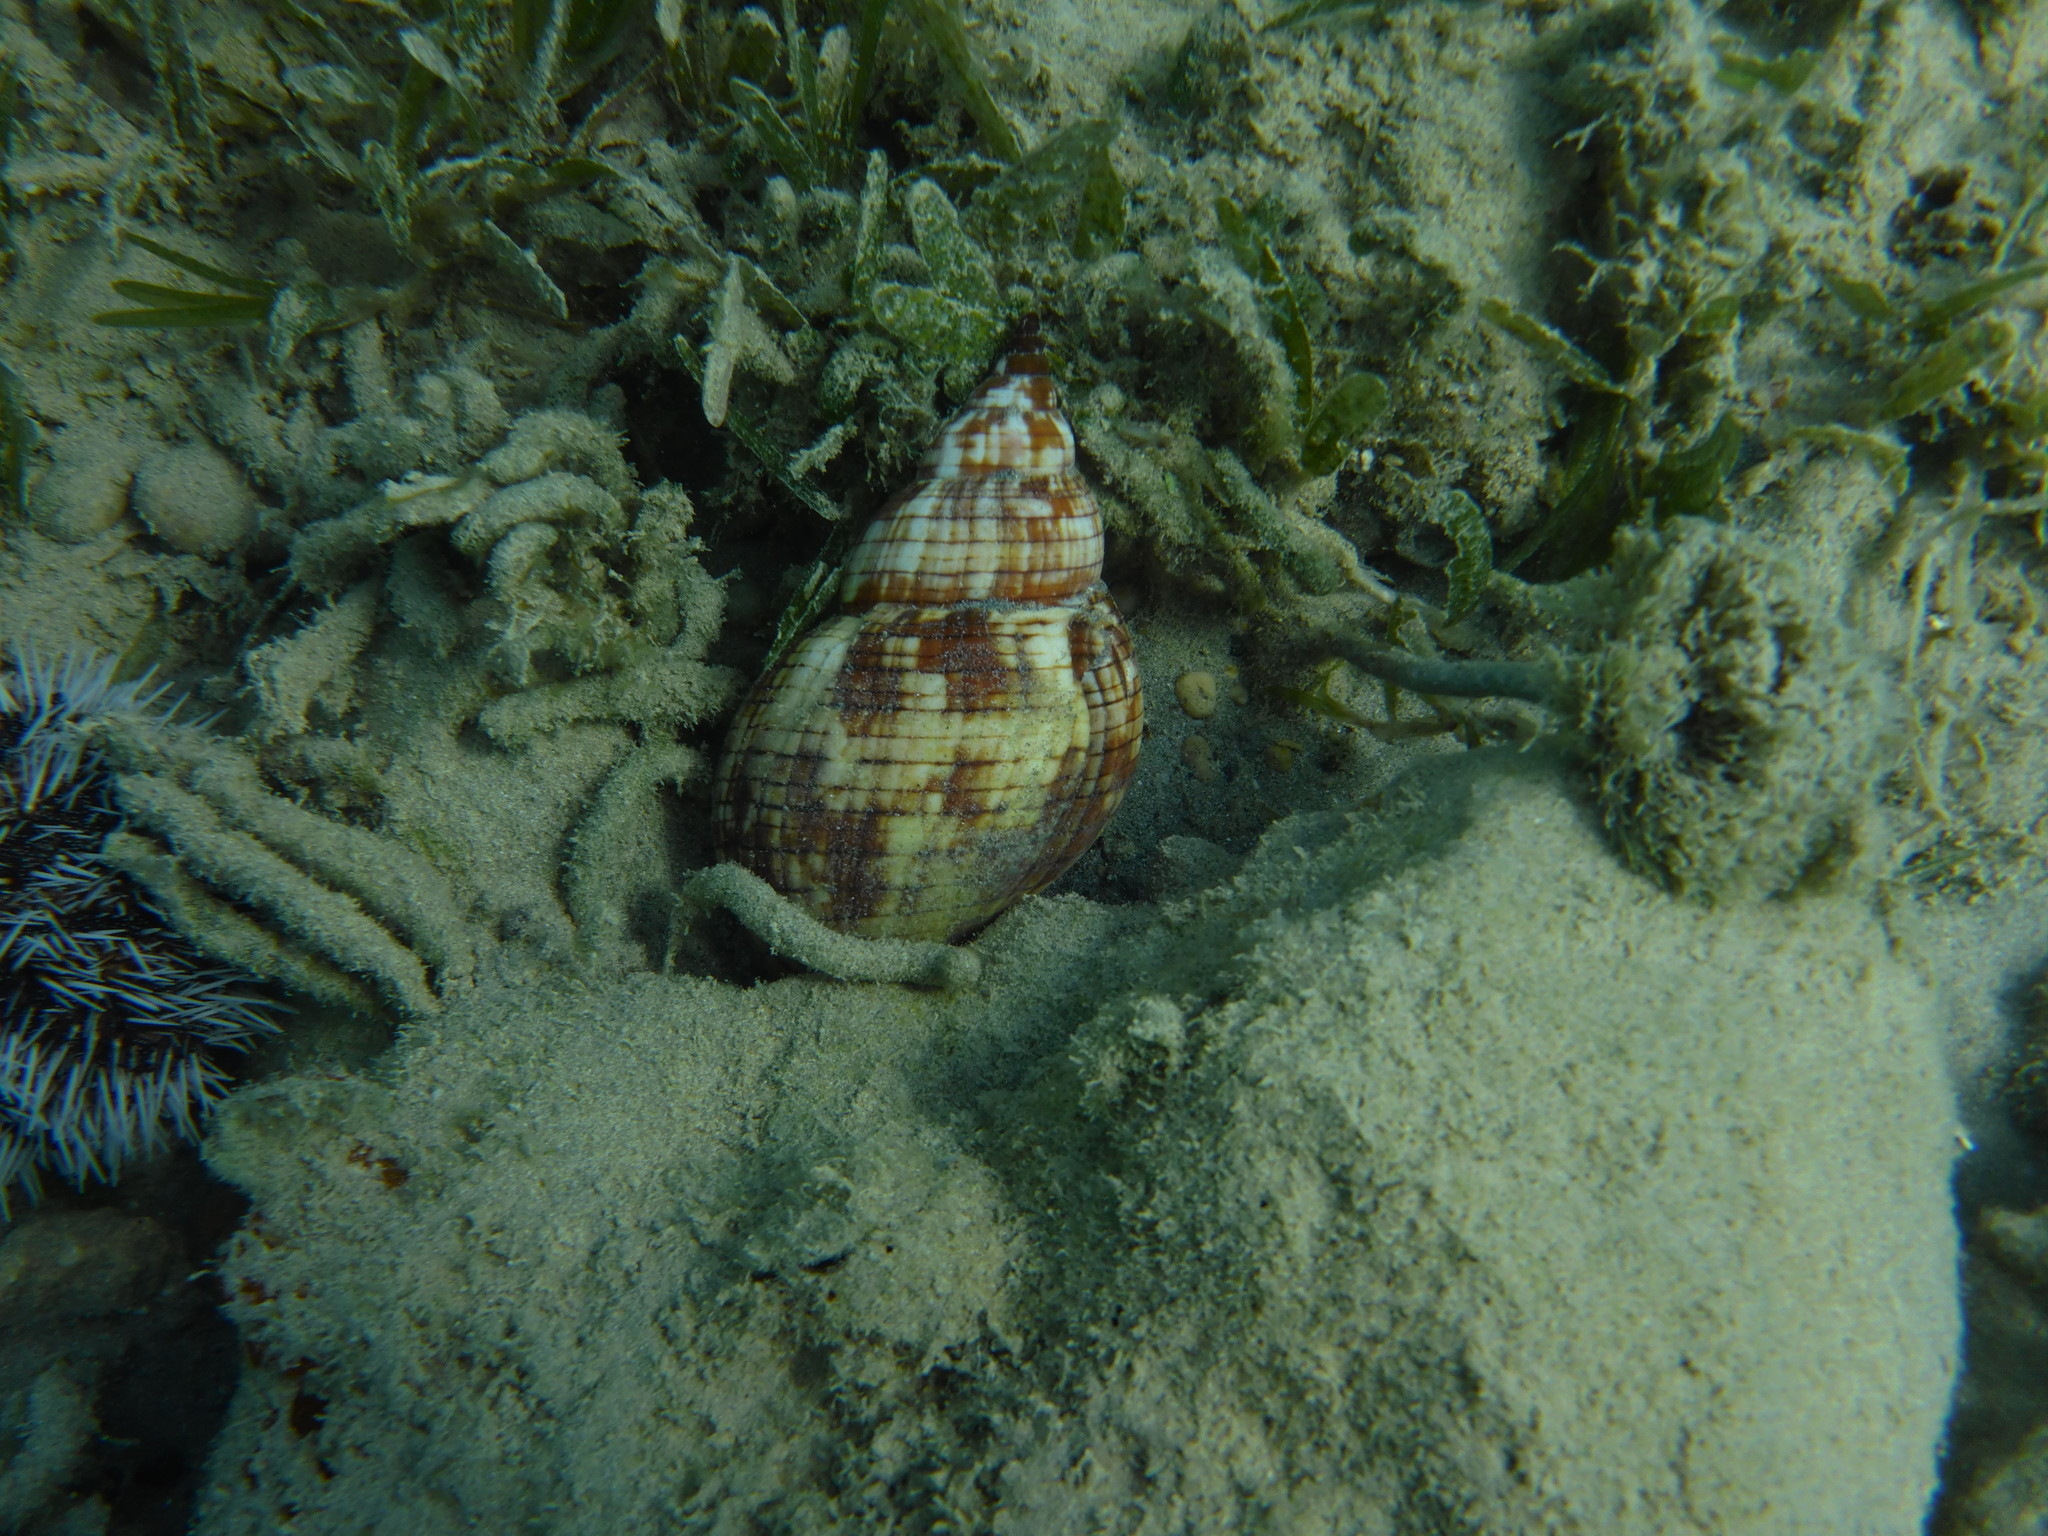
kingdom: Animalia
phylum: Mollusca
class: Gastropoda
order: Neogastropoda
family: Fasciolariidae
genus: Fasciolaria
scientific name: Fasciolaria tulipa
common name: True tulip
